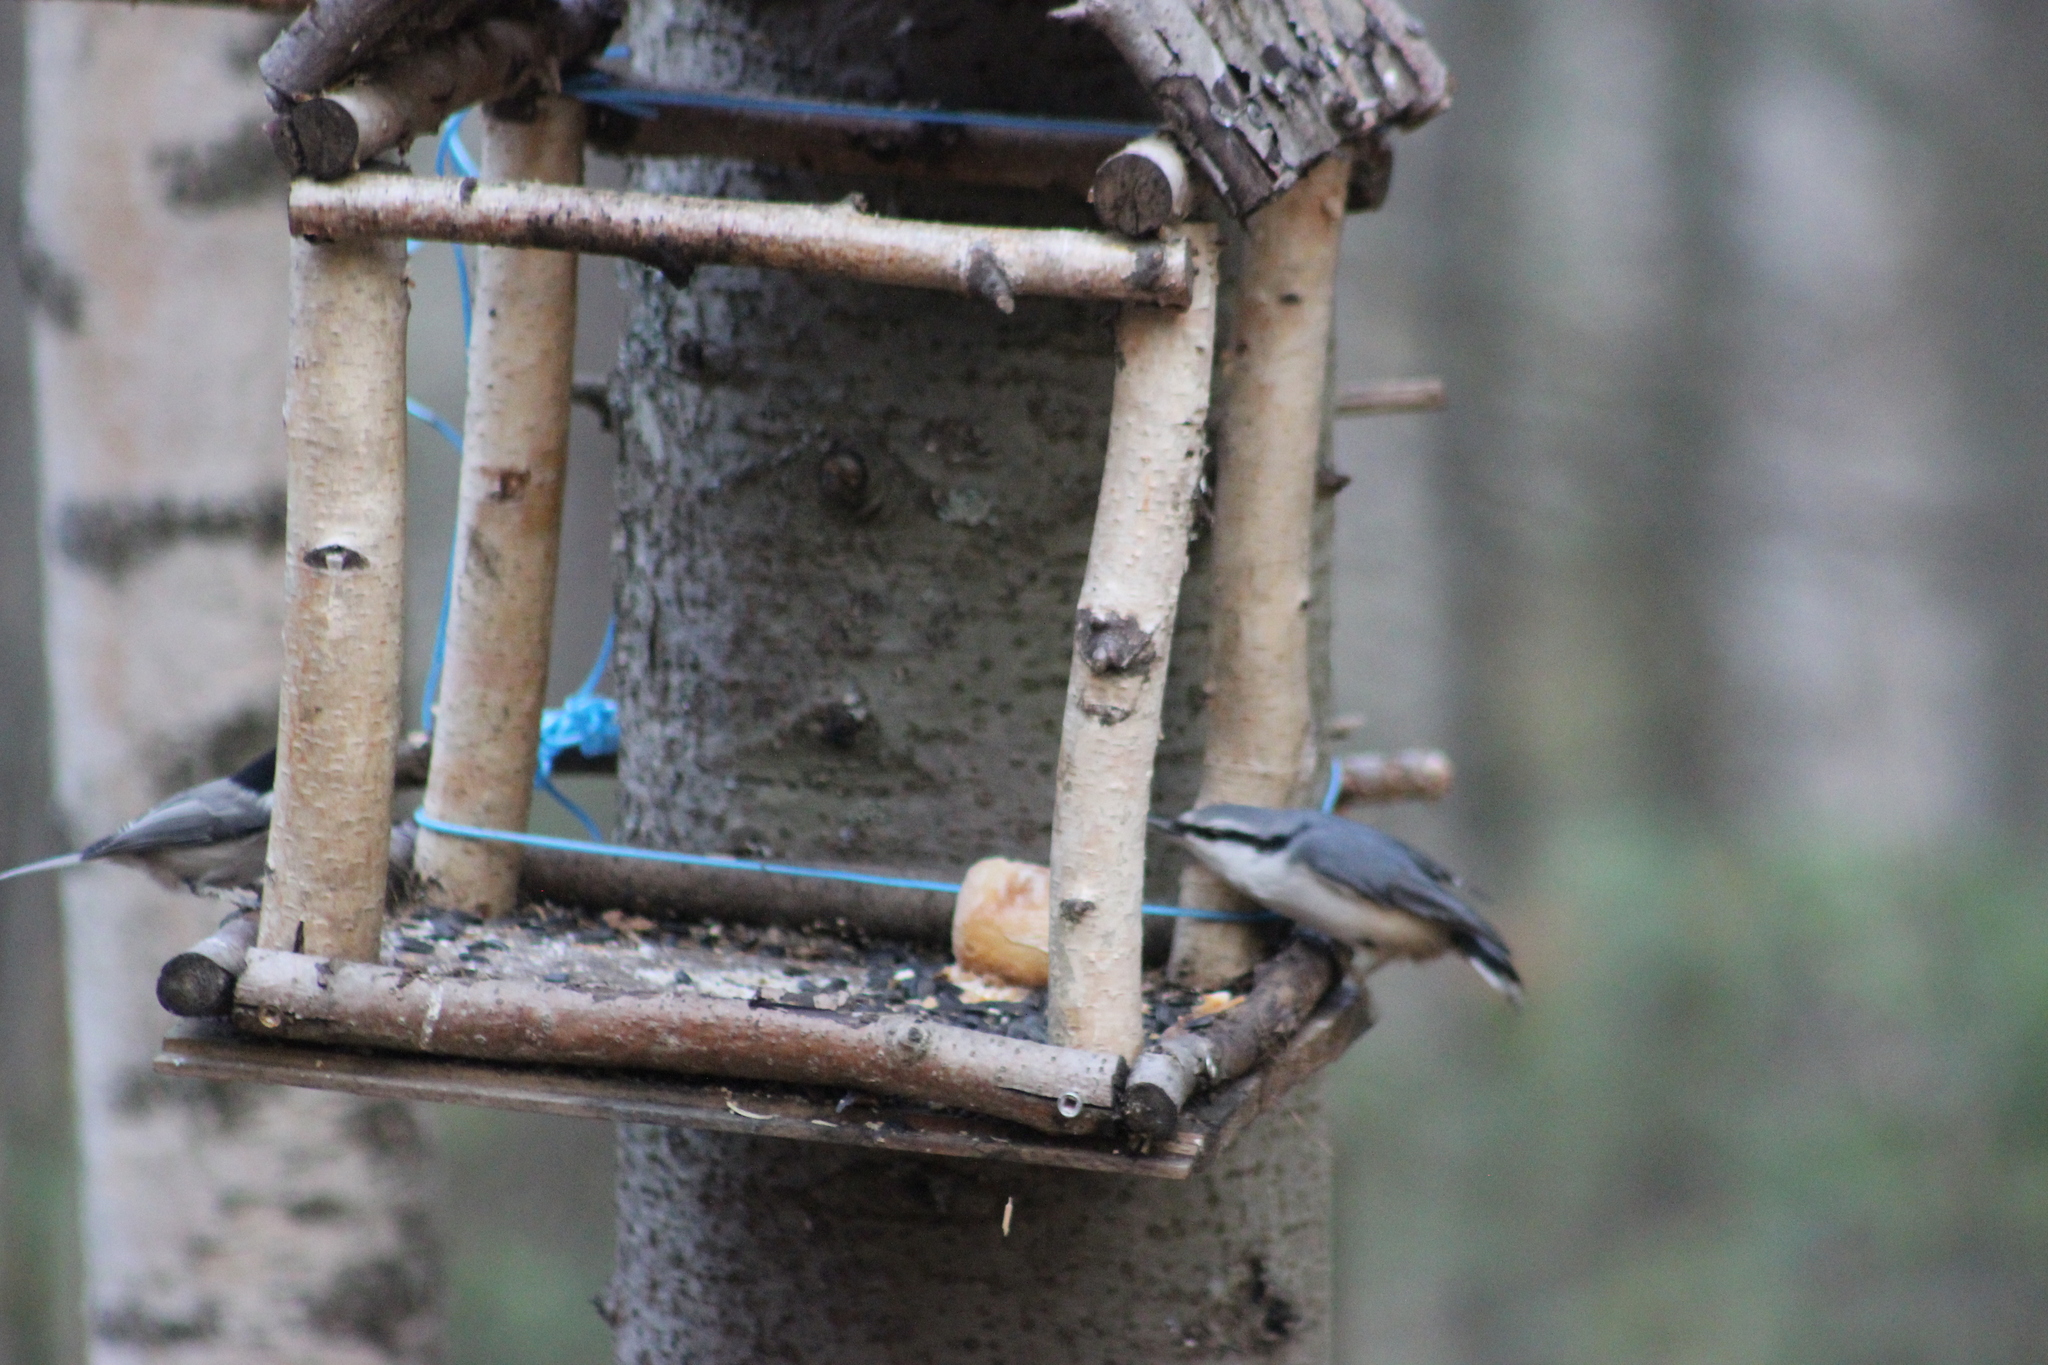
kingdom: Animalia
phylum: Chordata
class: Aves
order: Passeriformes
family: Sittidae
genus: Sitta
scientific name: Sitta europaea
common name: Eurasian nuthatch
